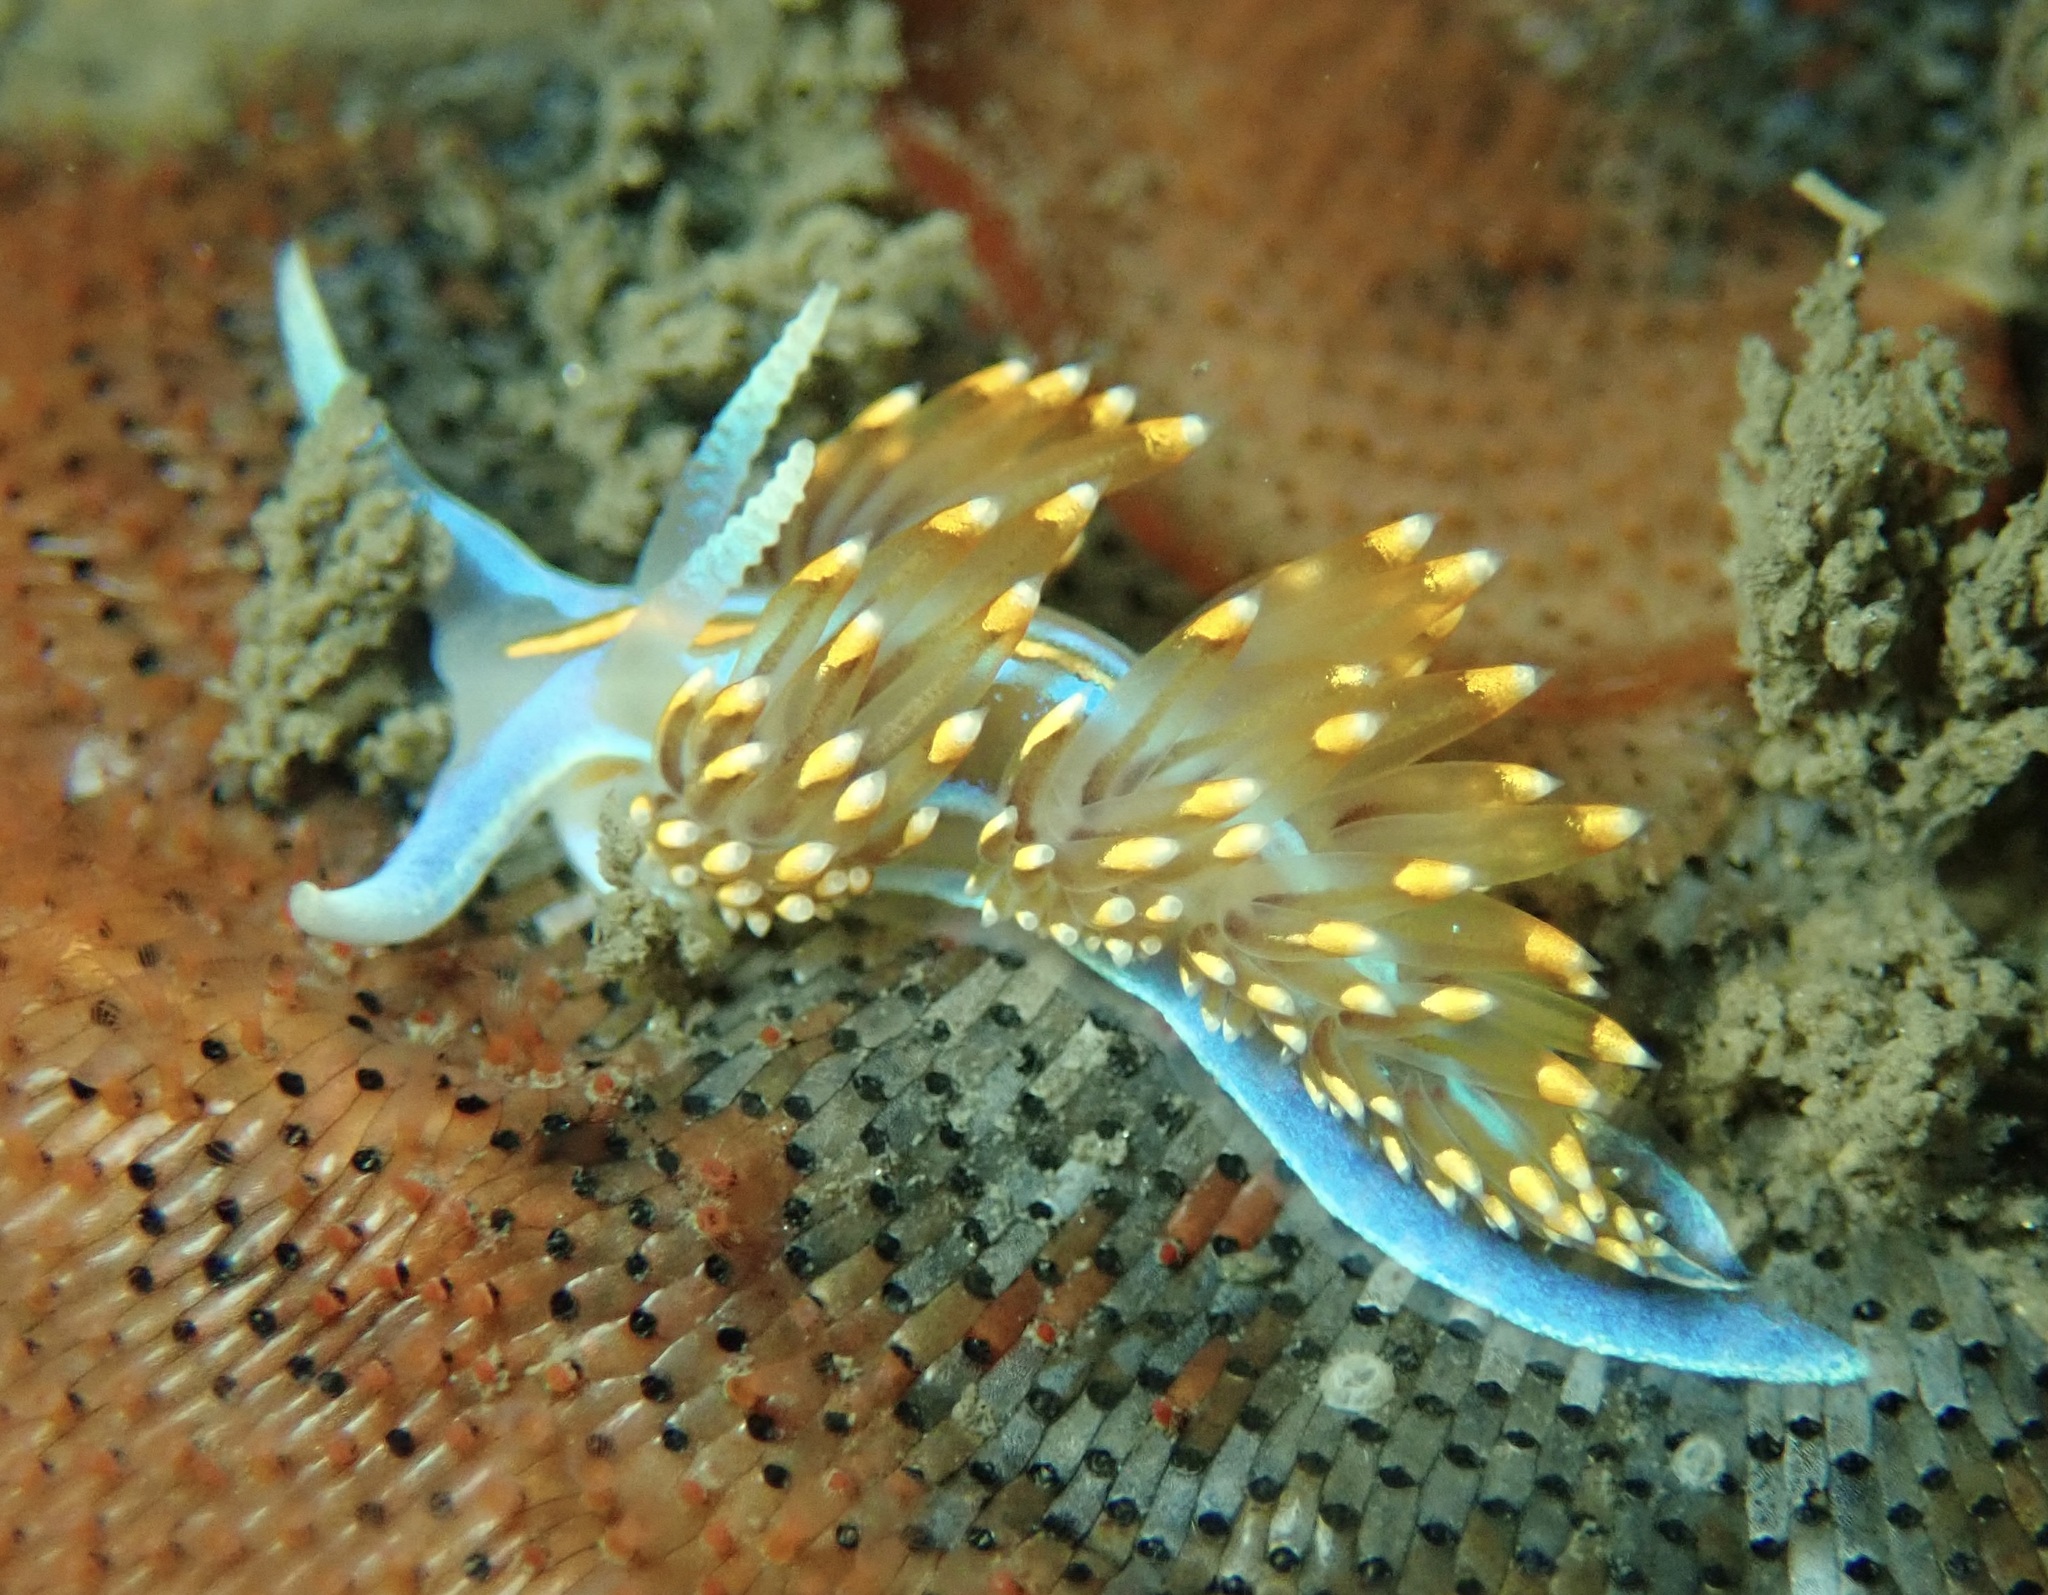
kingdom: Animalia
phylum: Mollusca
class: Gastropoda
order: Nudibranchia
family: Myrrhinidae
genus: Hermissenda
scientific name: Hermissenda opalescens
